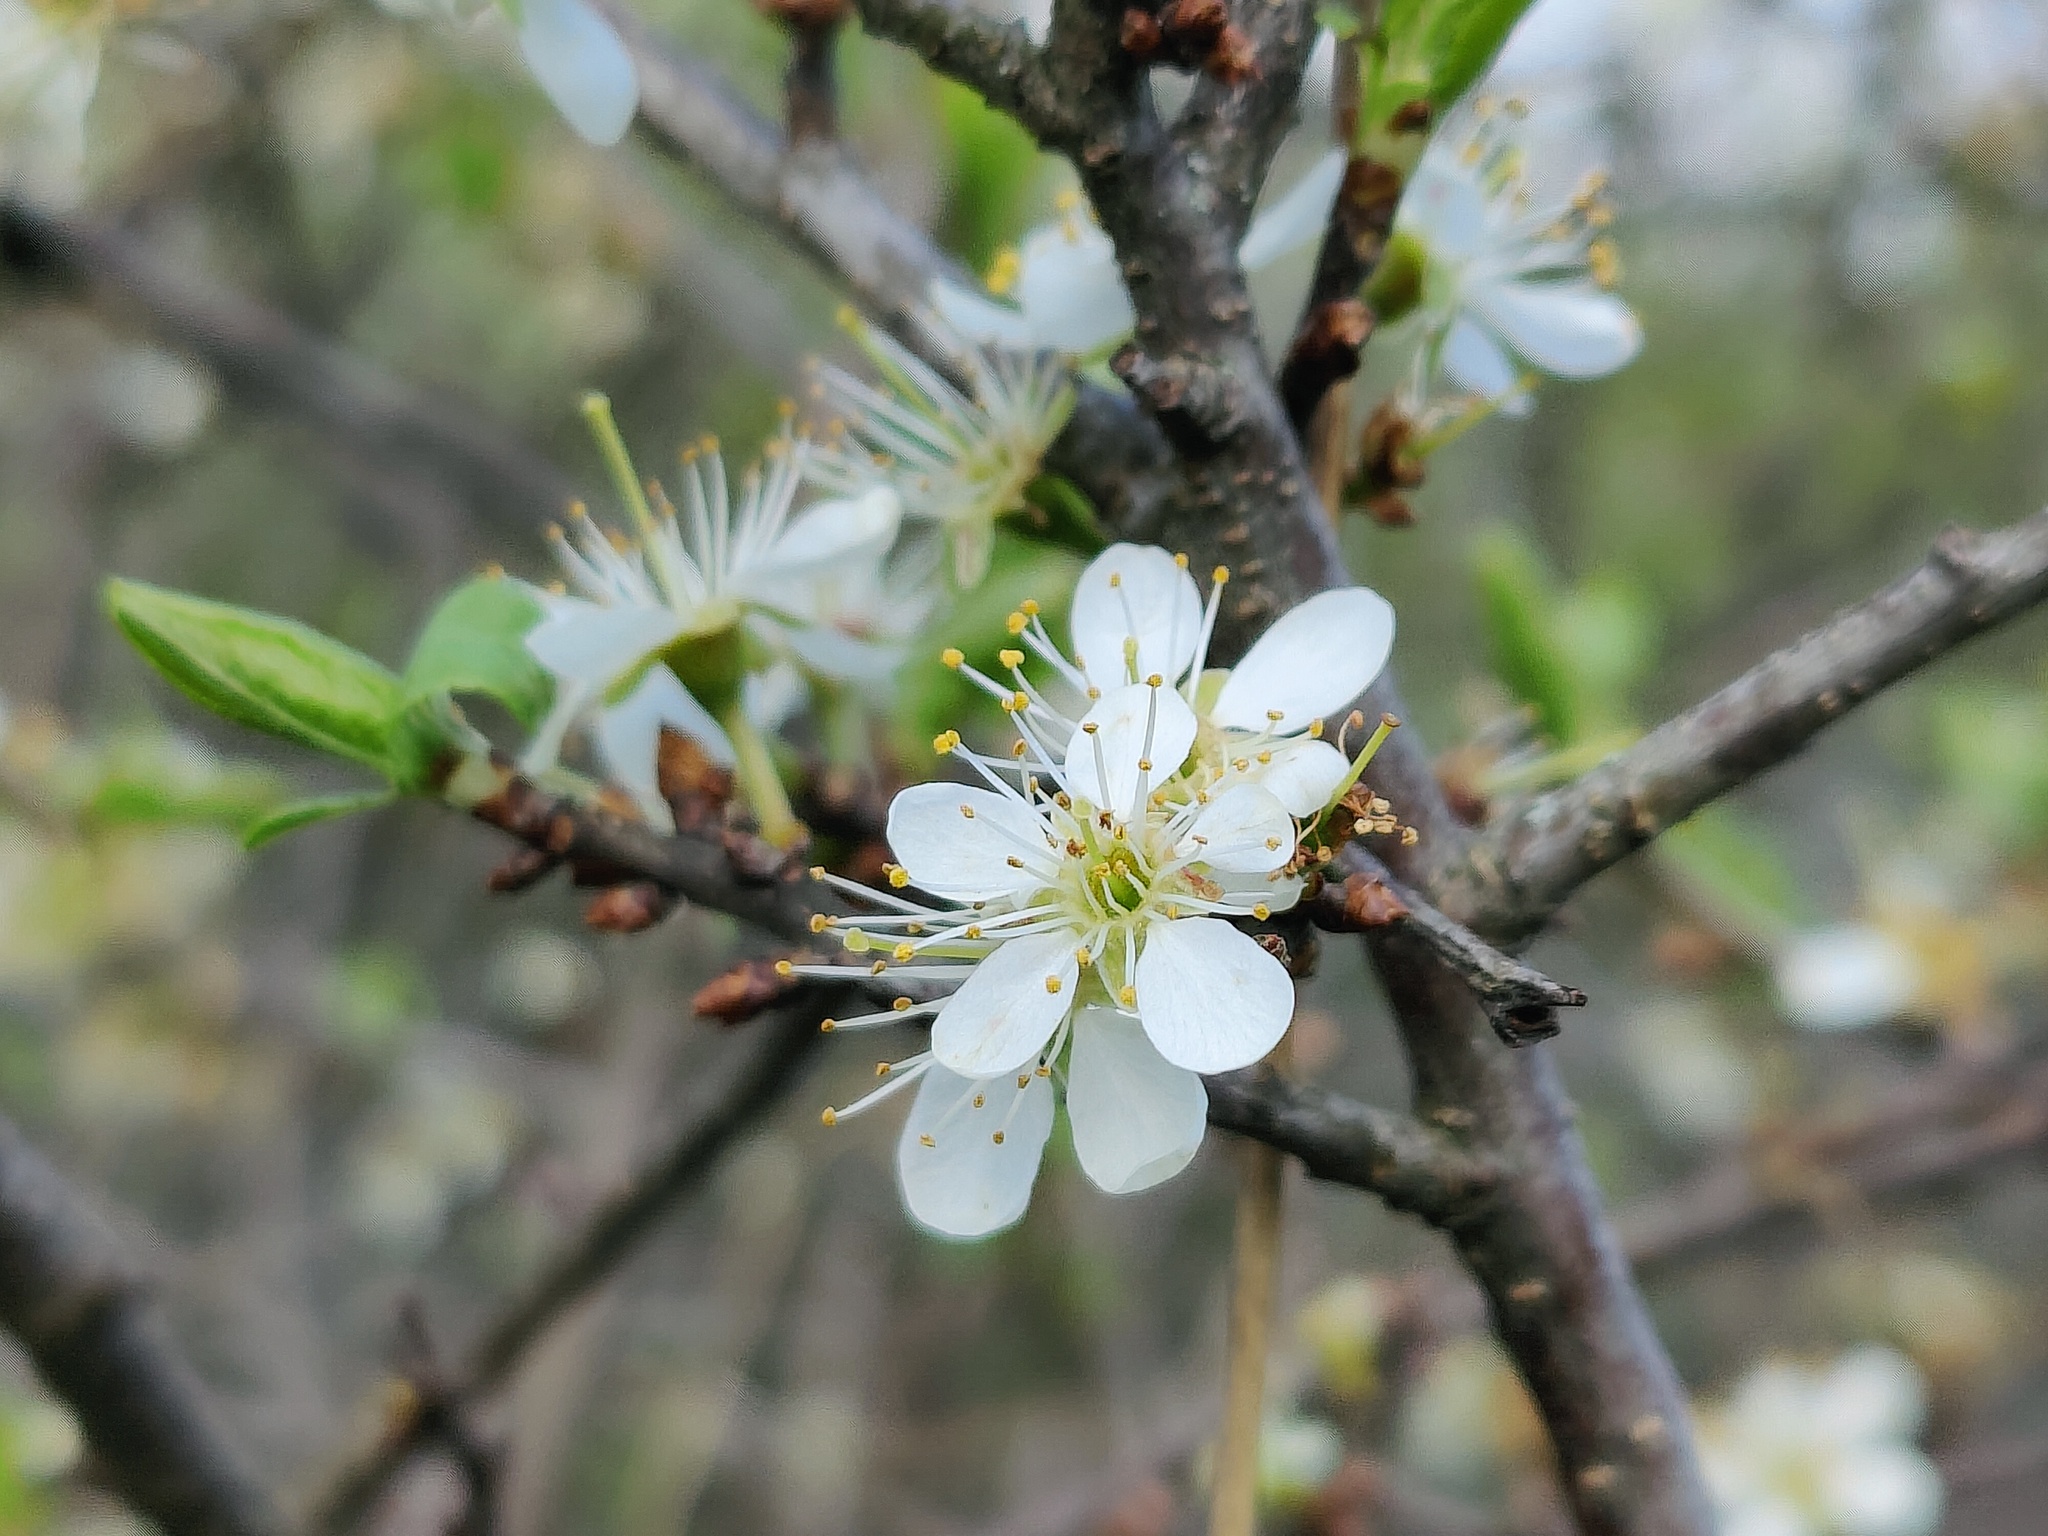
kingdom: Plantae
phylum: Tracheophyta
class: Magnoliopsida
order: Rosales
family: Rosaceae
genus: Prunus
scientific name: Prunus spinosa
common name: Blackthorn
